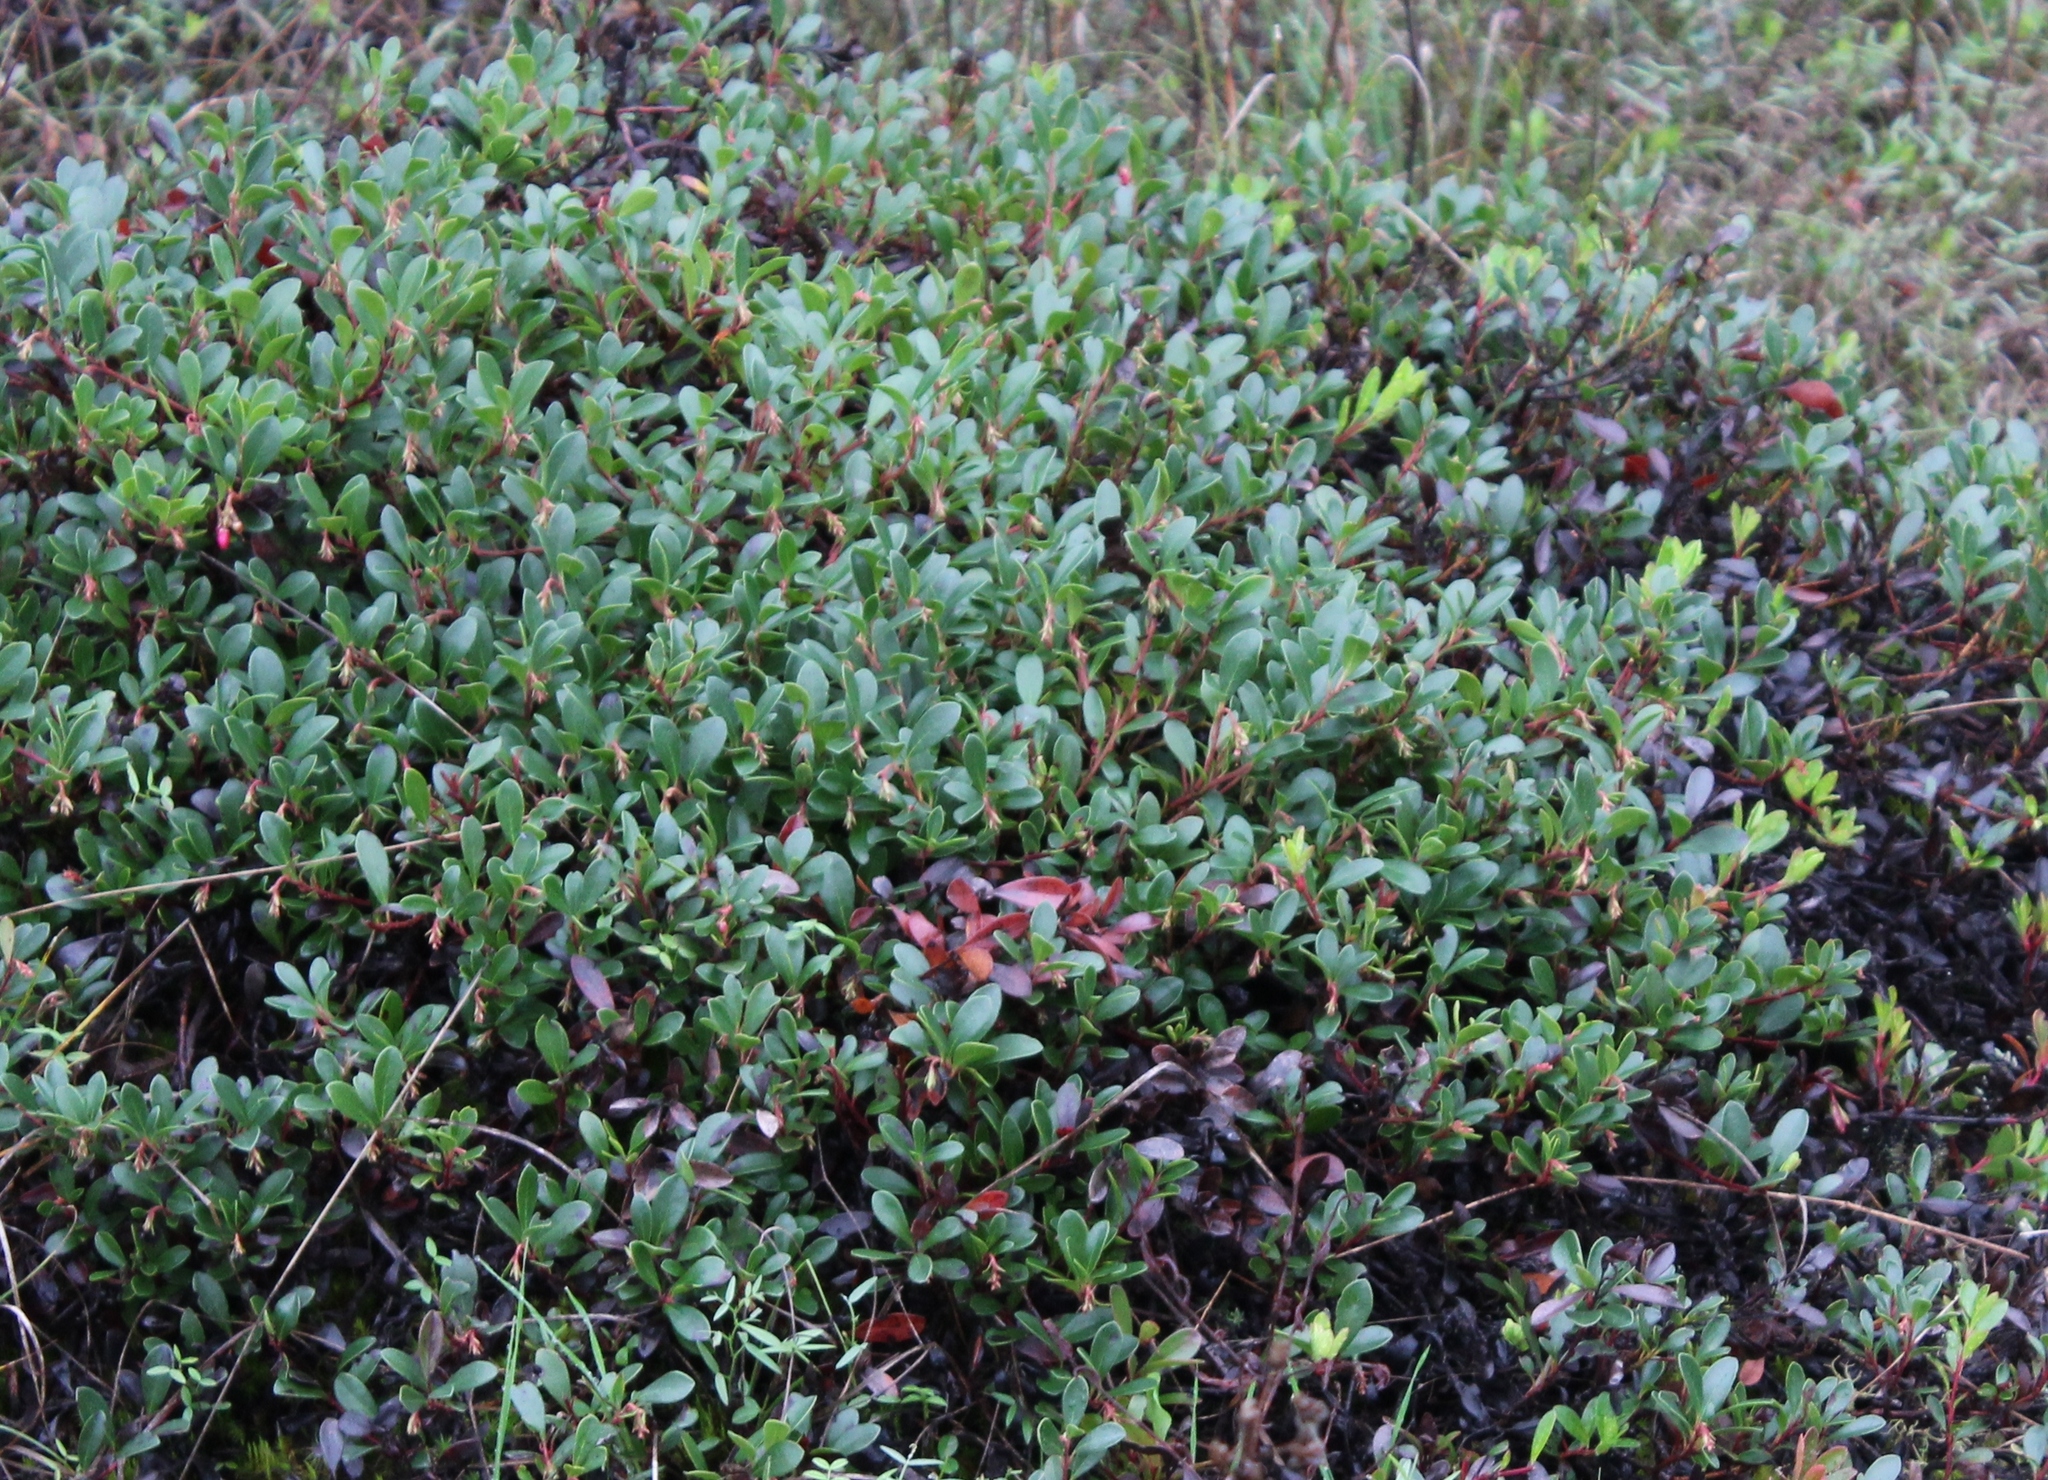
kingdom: Plantae
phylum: Tracheophyta
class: Magnoliopsida
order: Ericales
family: Ericaceae
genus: Arctostaphylos
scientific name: Arctostaphylos uva-ursi
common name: Bearberry
